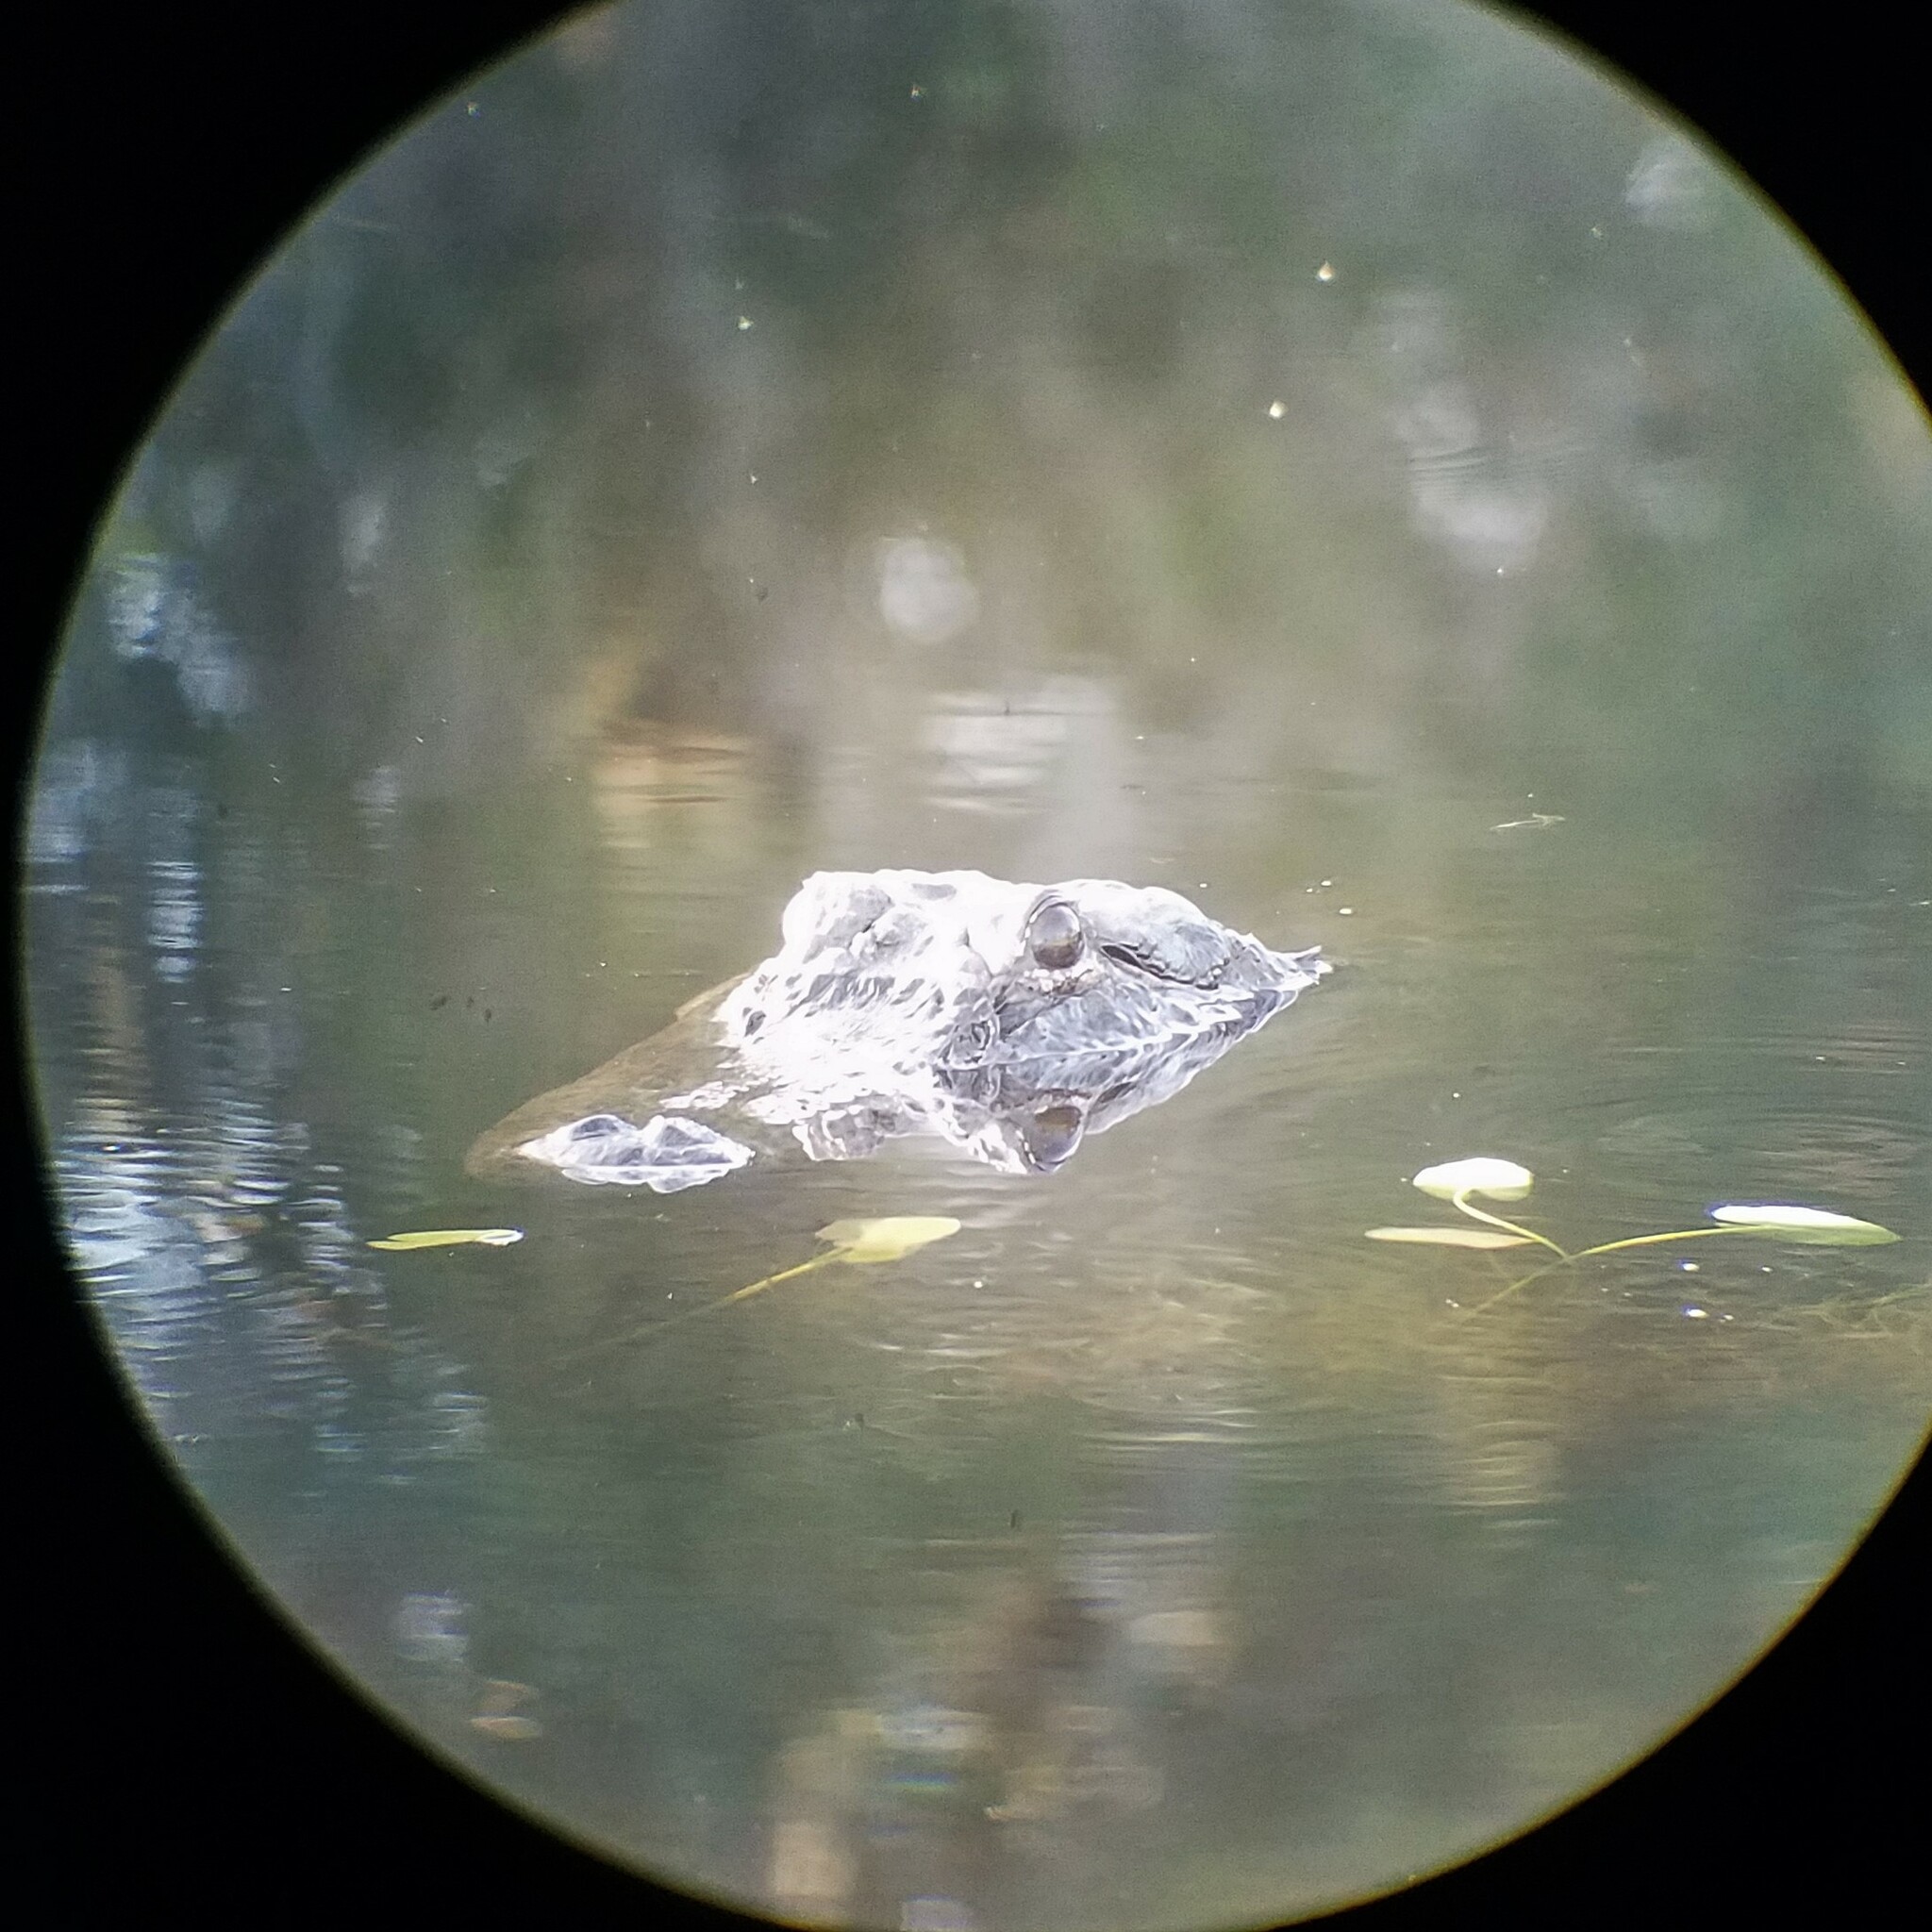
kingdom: Animalia
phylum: Chordata
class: Crocodylia
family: Alligatoridae
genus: Alligator
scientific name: Alligator mississippiensis
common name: American alligator
